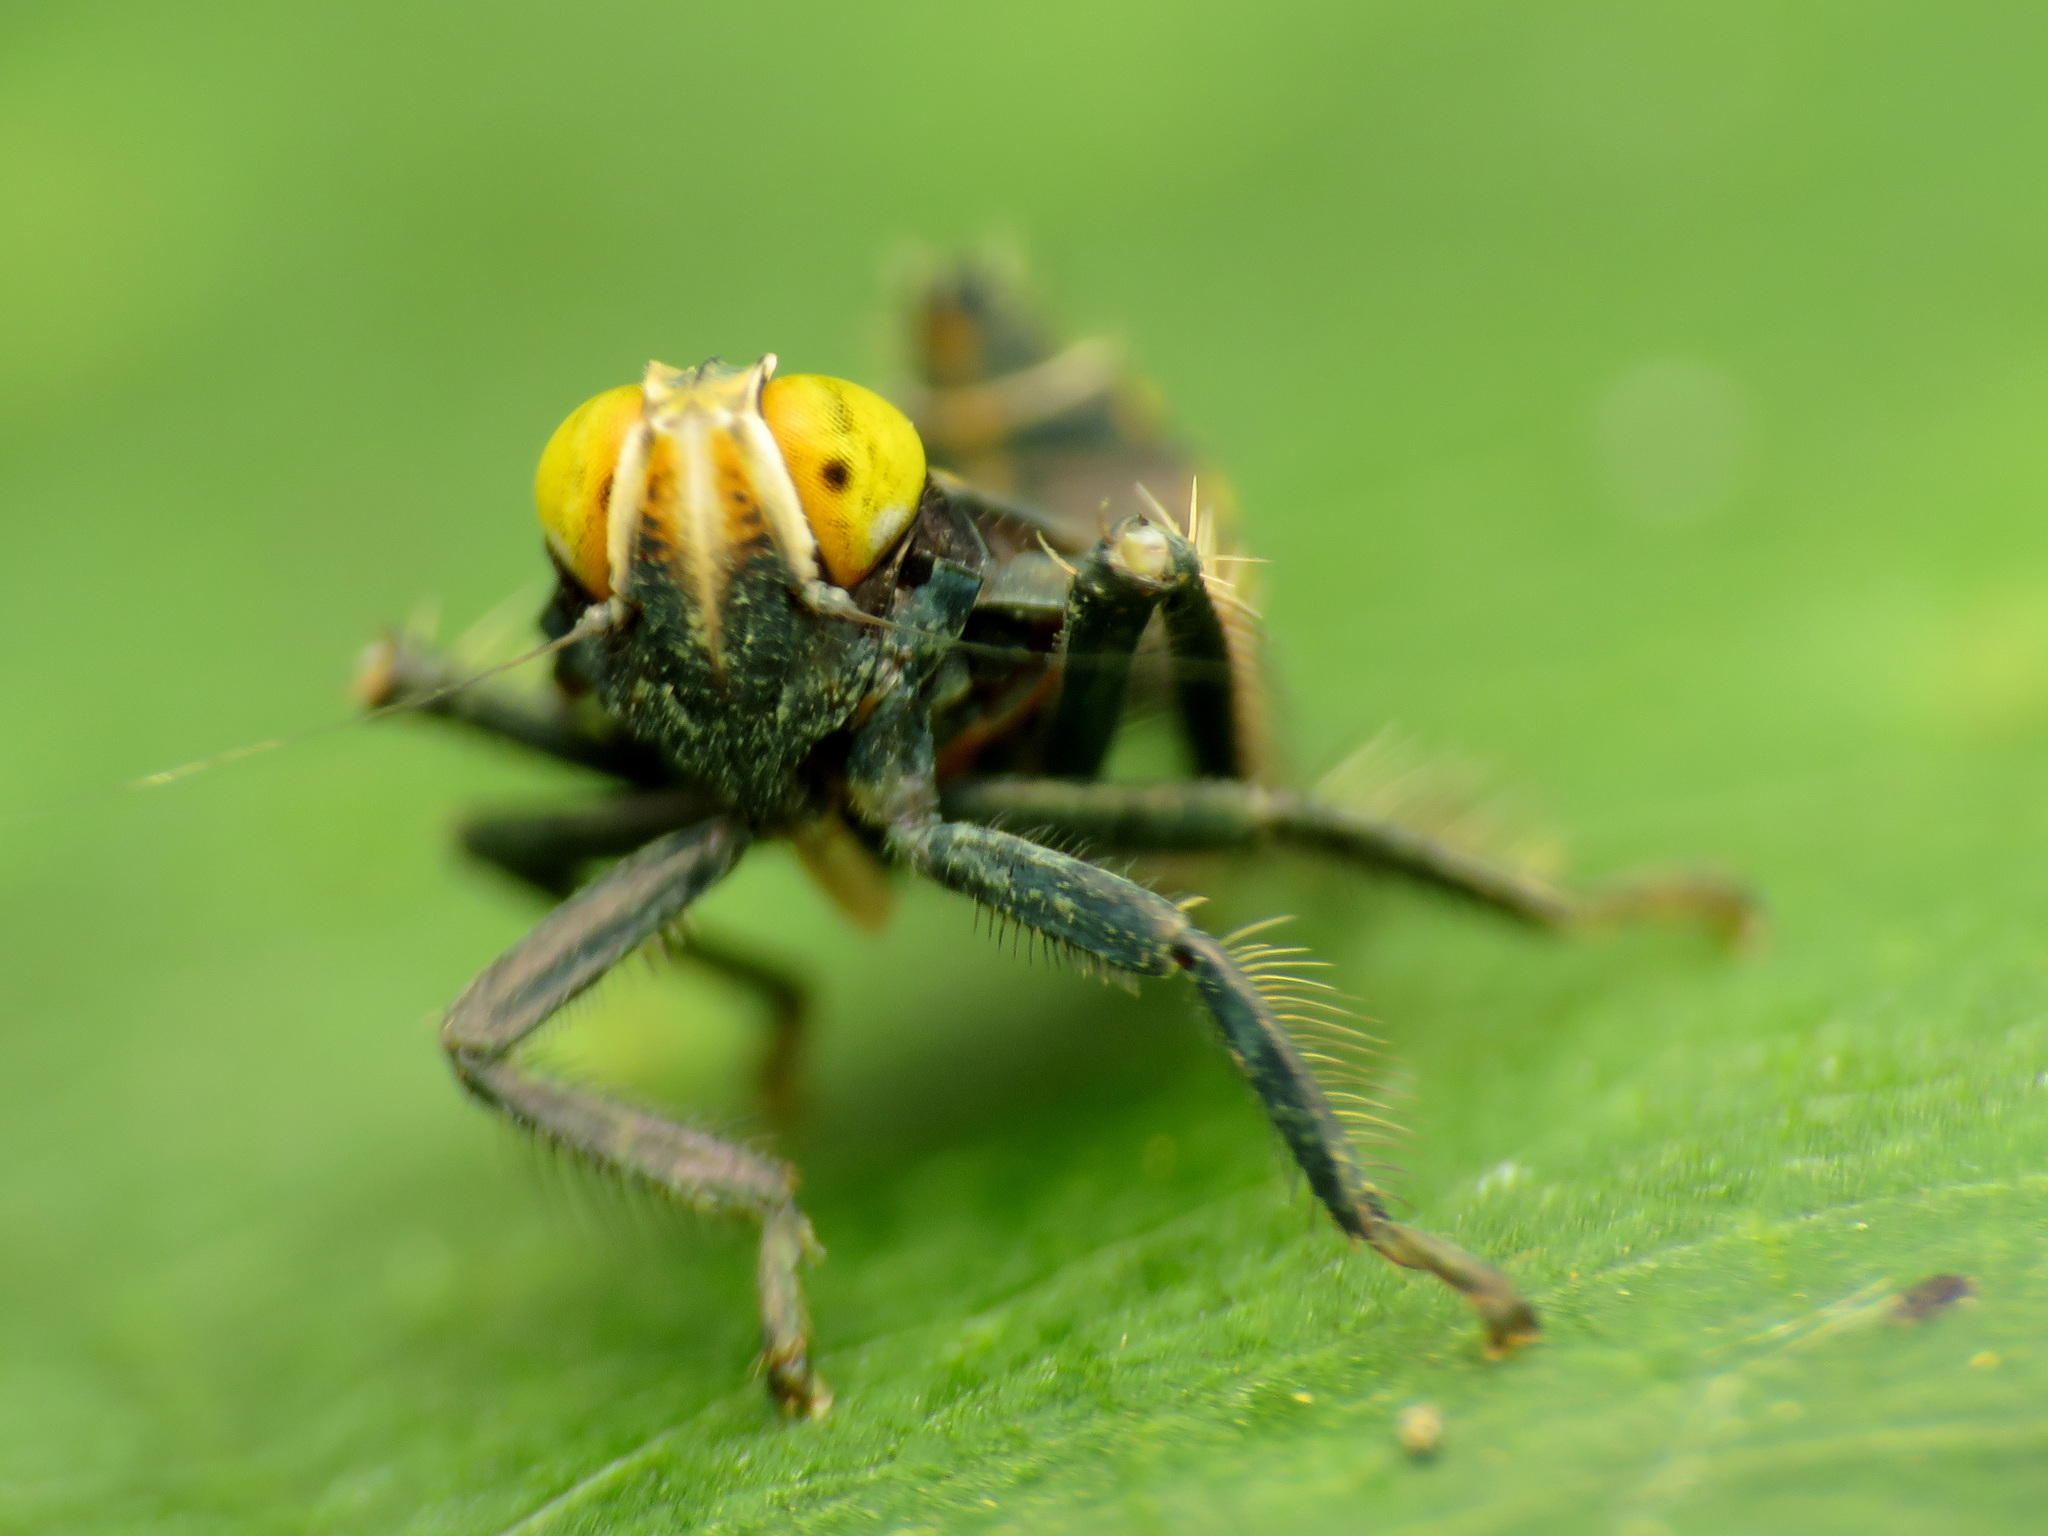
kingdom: Animalia
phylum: Arthropoda
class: Insecta
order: Hemiptera
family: Cicadellidae
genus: Jikradia
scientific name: Jikradia olitoria
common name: Coppery leafhopper
